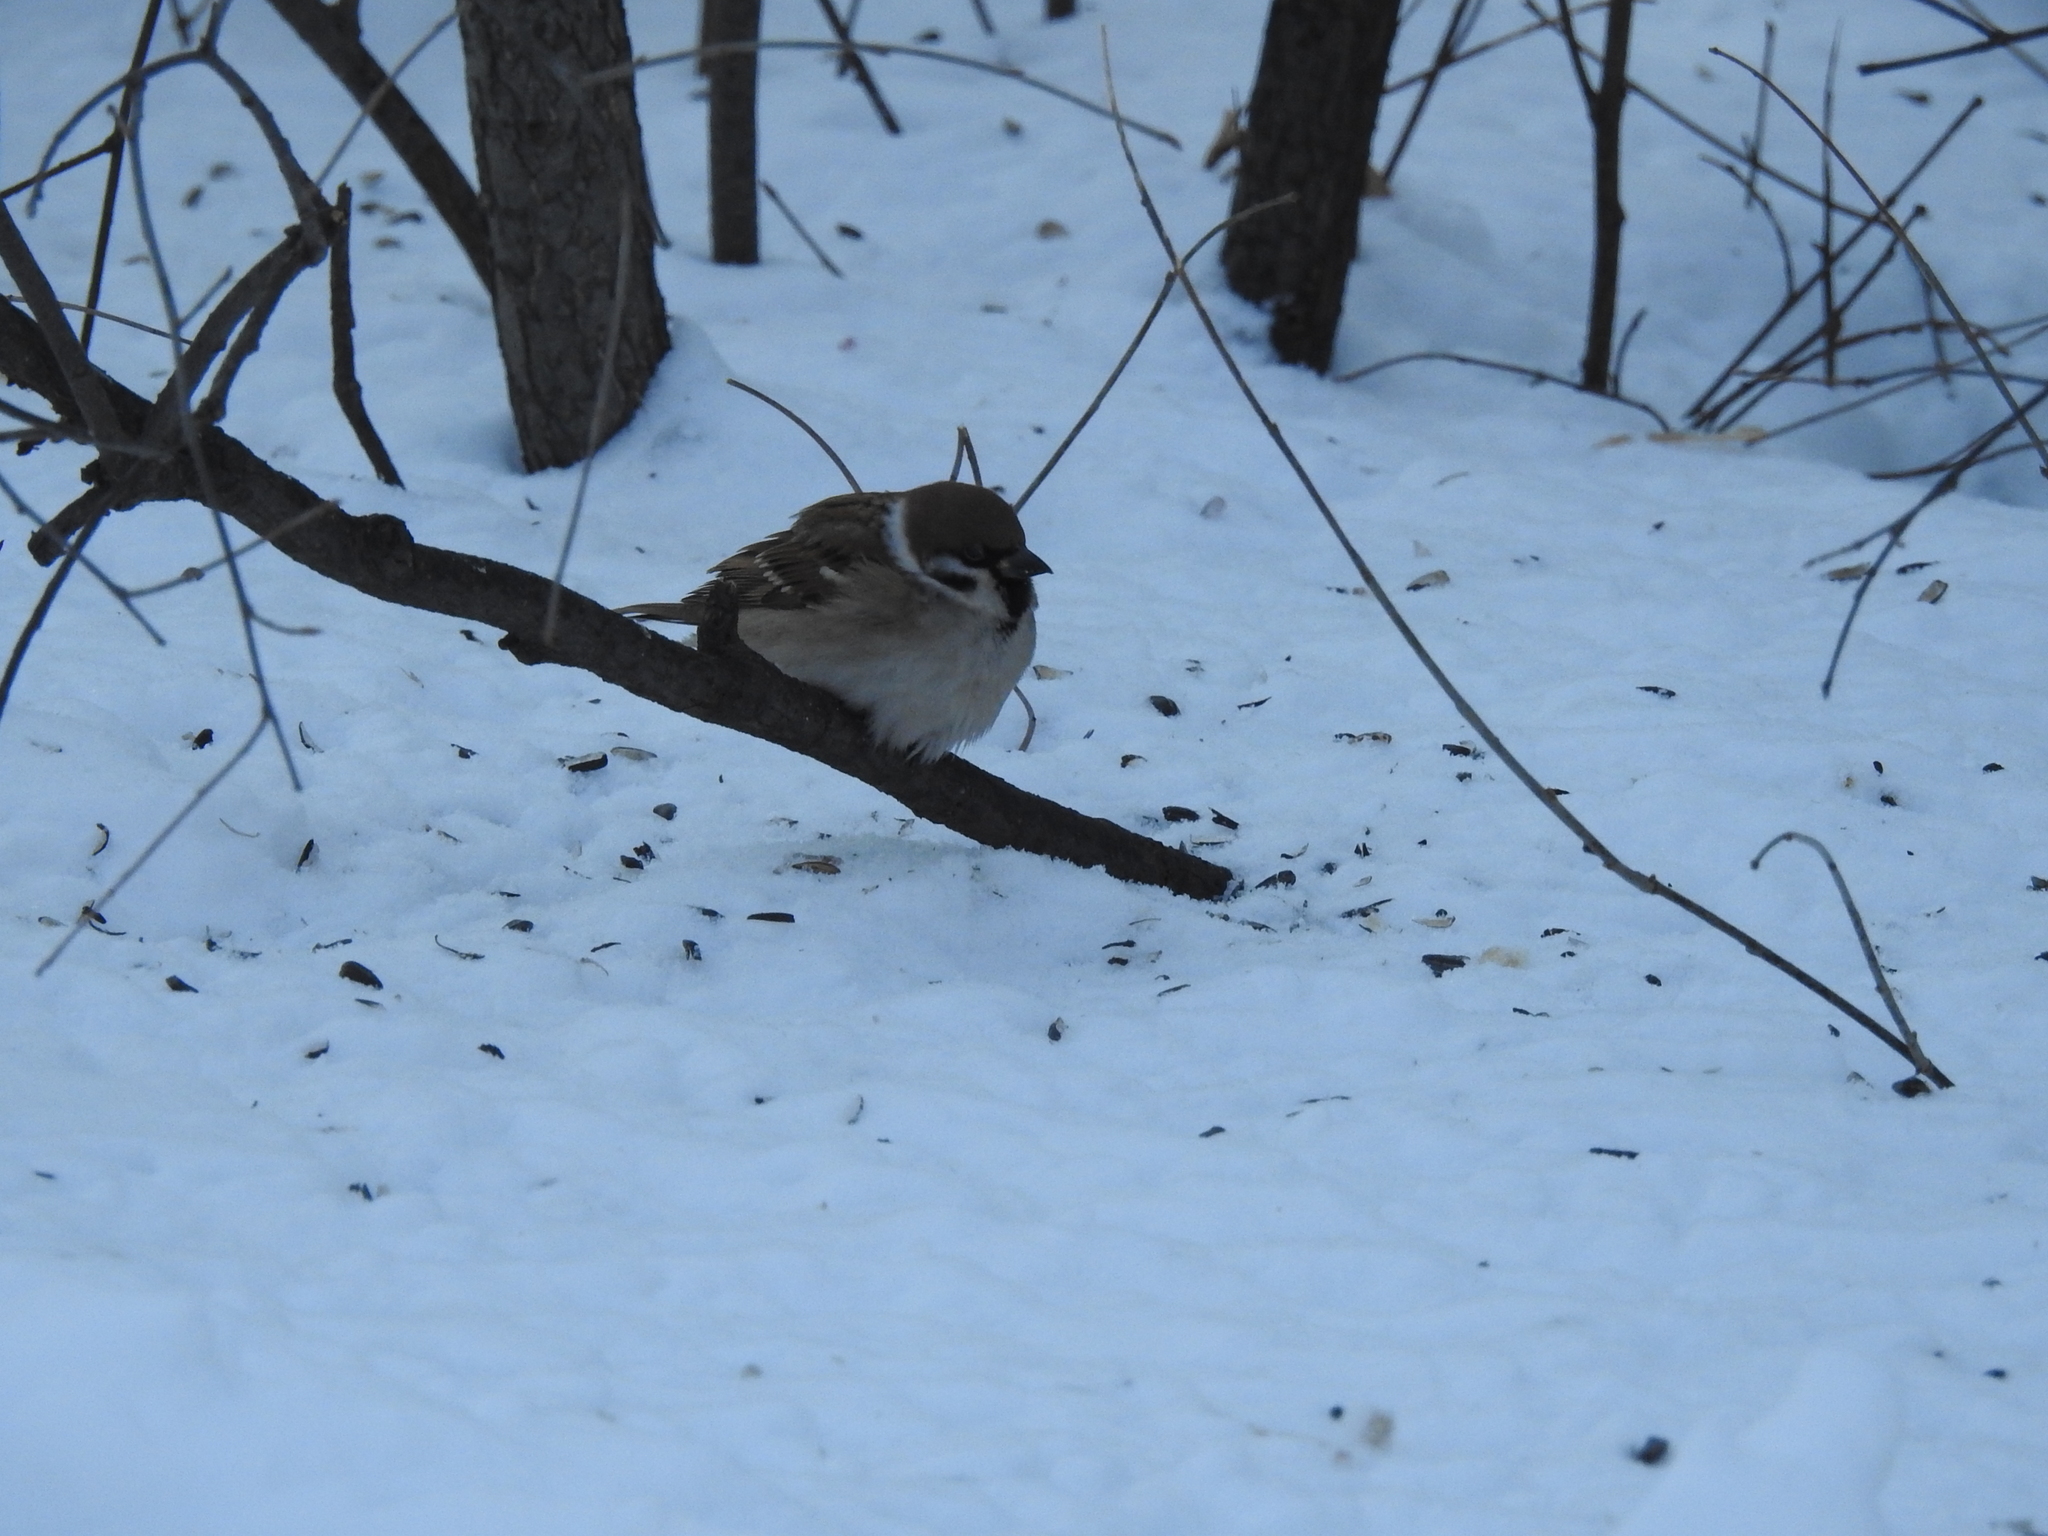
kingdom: Animalia
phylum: Chordata
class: Aves
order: Passeriformes
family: Passeridae
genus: Passer
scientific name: Passer montanus
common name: Eurasian tree sparrow
